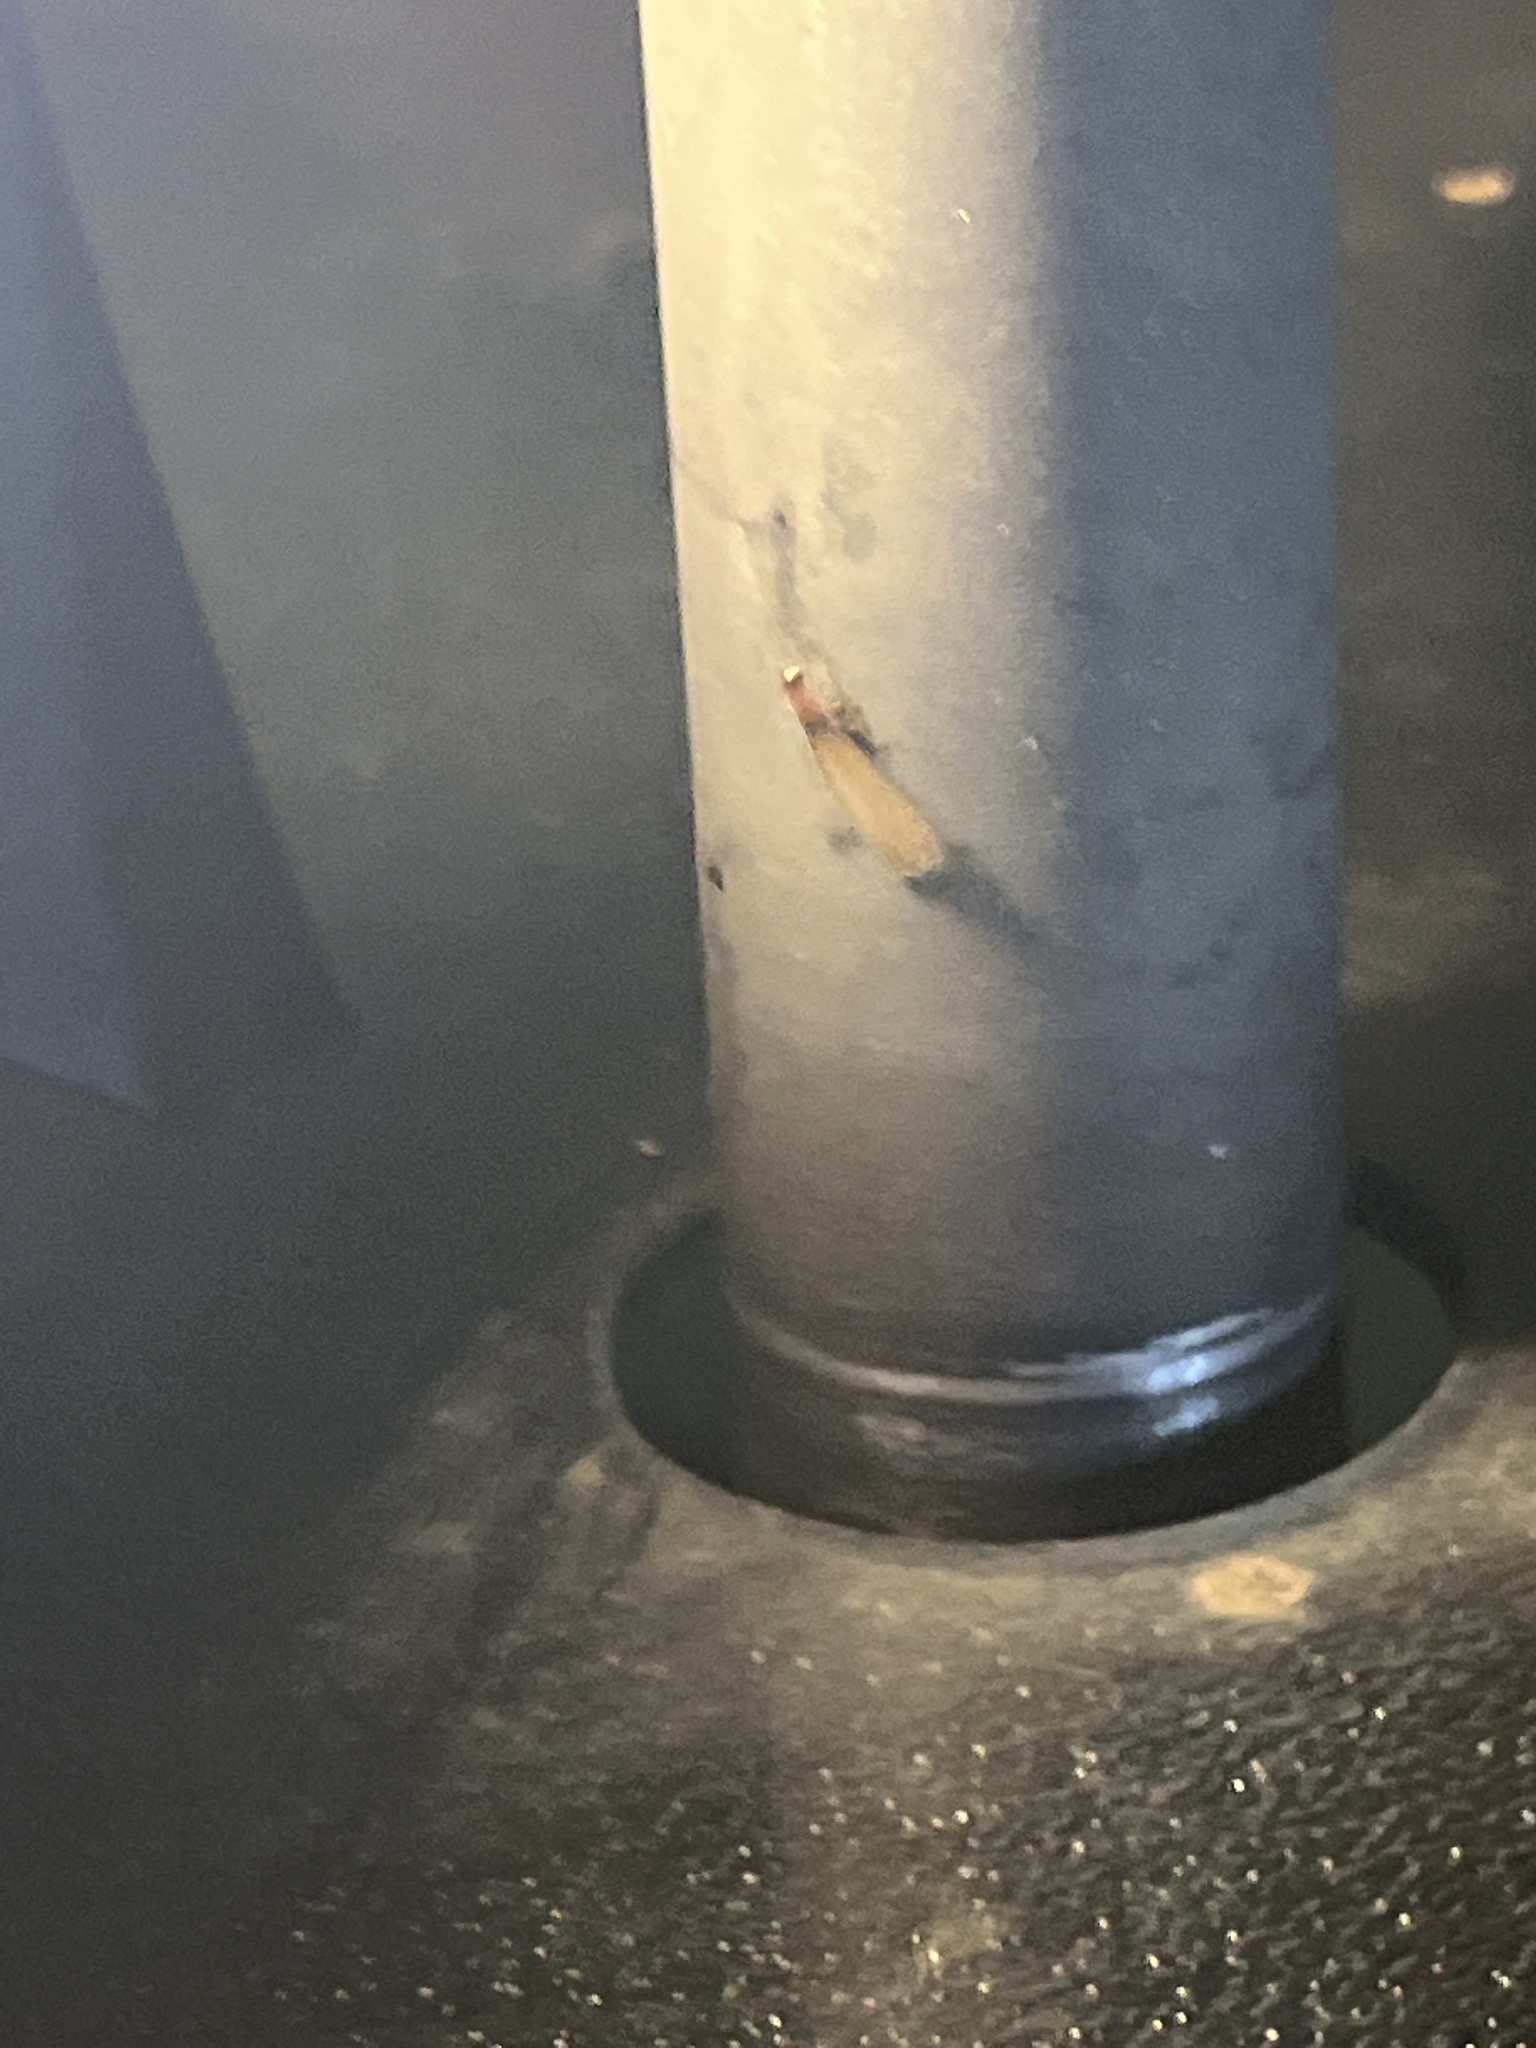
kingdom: Animalia
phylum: Arthropoda
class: Insecta
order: Blattodea
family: Rhinotermitidae
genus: Coptotermes
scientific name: Coptotermes formosanus
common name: Formosan termite
